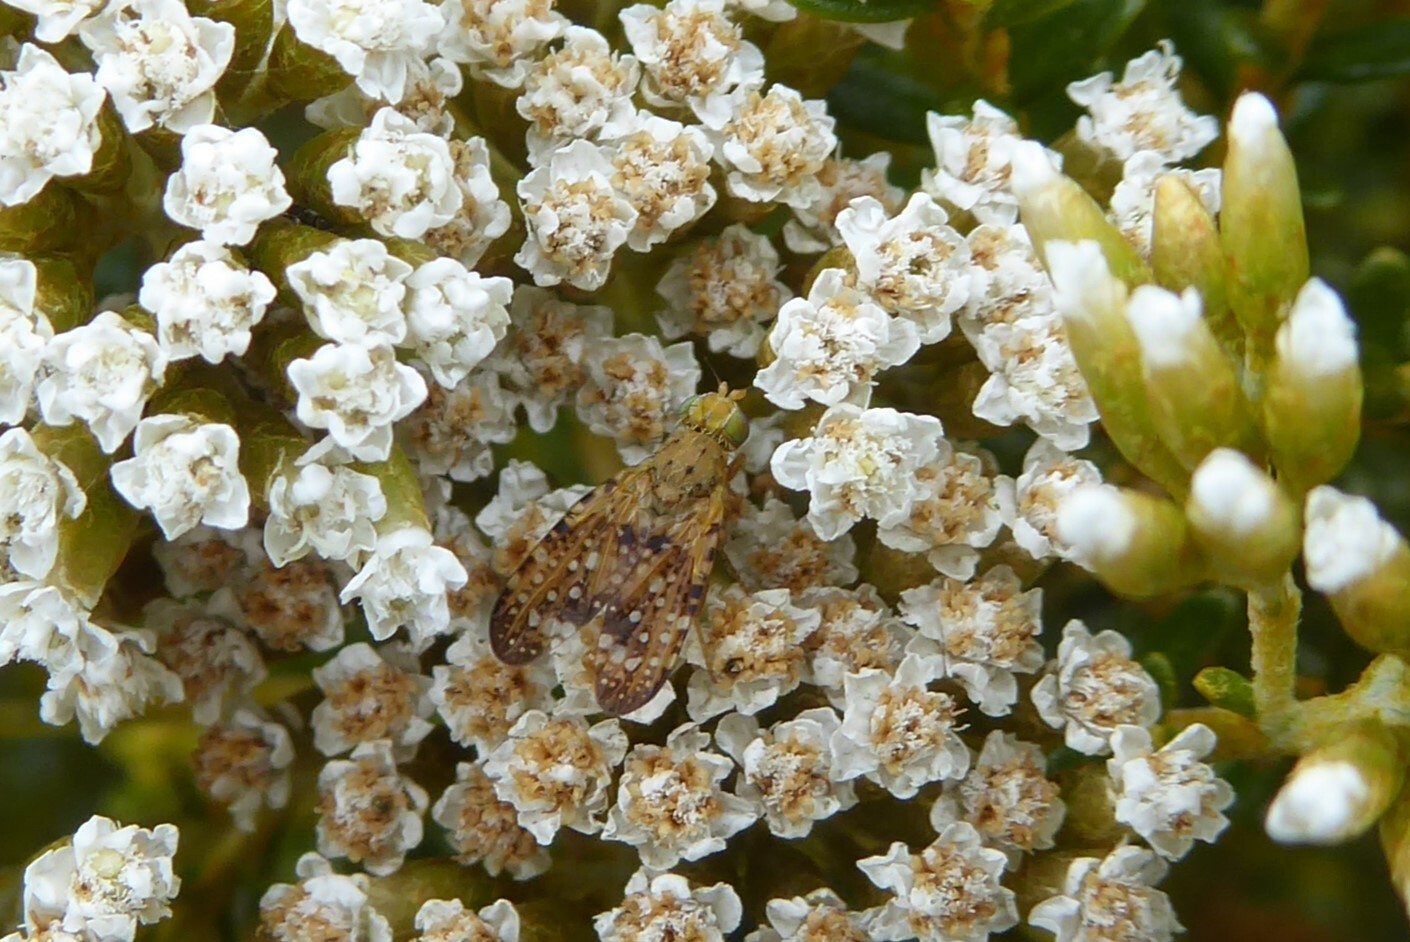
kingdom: Animalia
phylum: Arthropoda
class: Insecta
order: Diptera
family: Tephritidae
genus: Austrotephritis
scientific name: Austrotephritis
